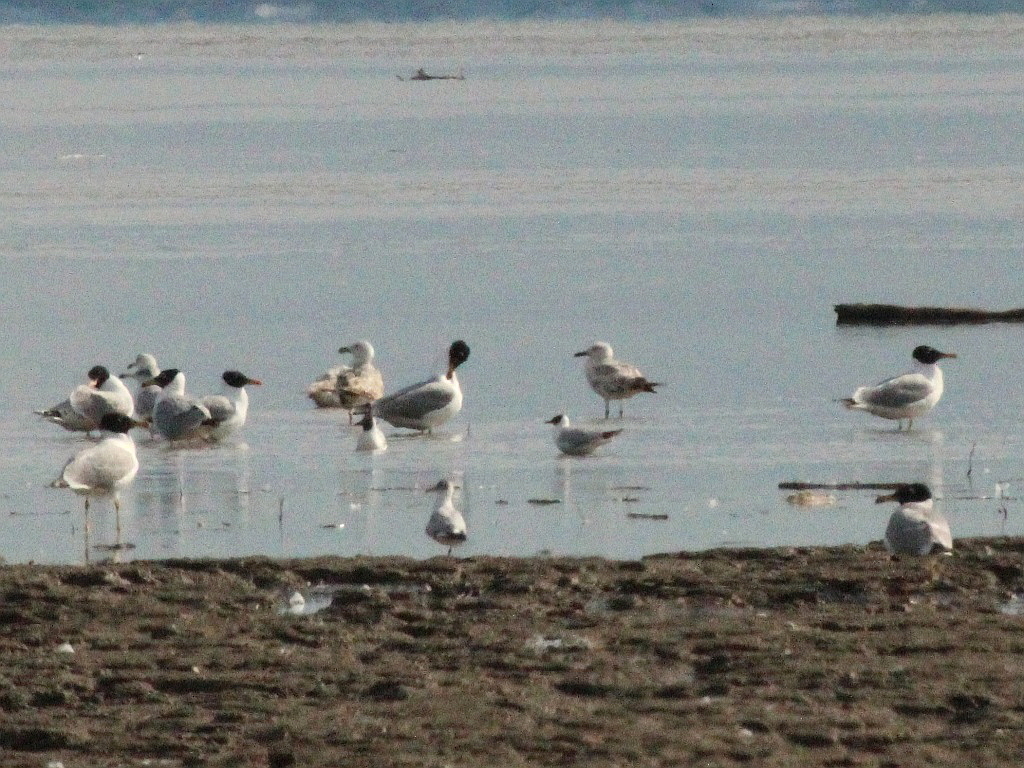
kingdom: Animalia
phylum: Chordata
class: Aves
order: Charadriiformes
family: Laridae
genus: Ichthyaetus
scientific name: Ichthyaetus ichthyaetus
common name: Pallas's gull
